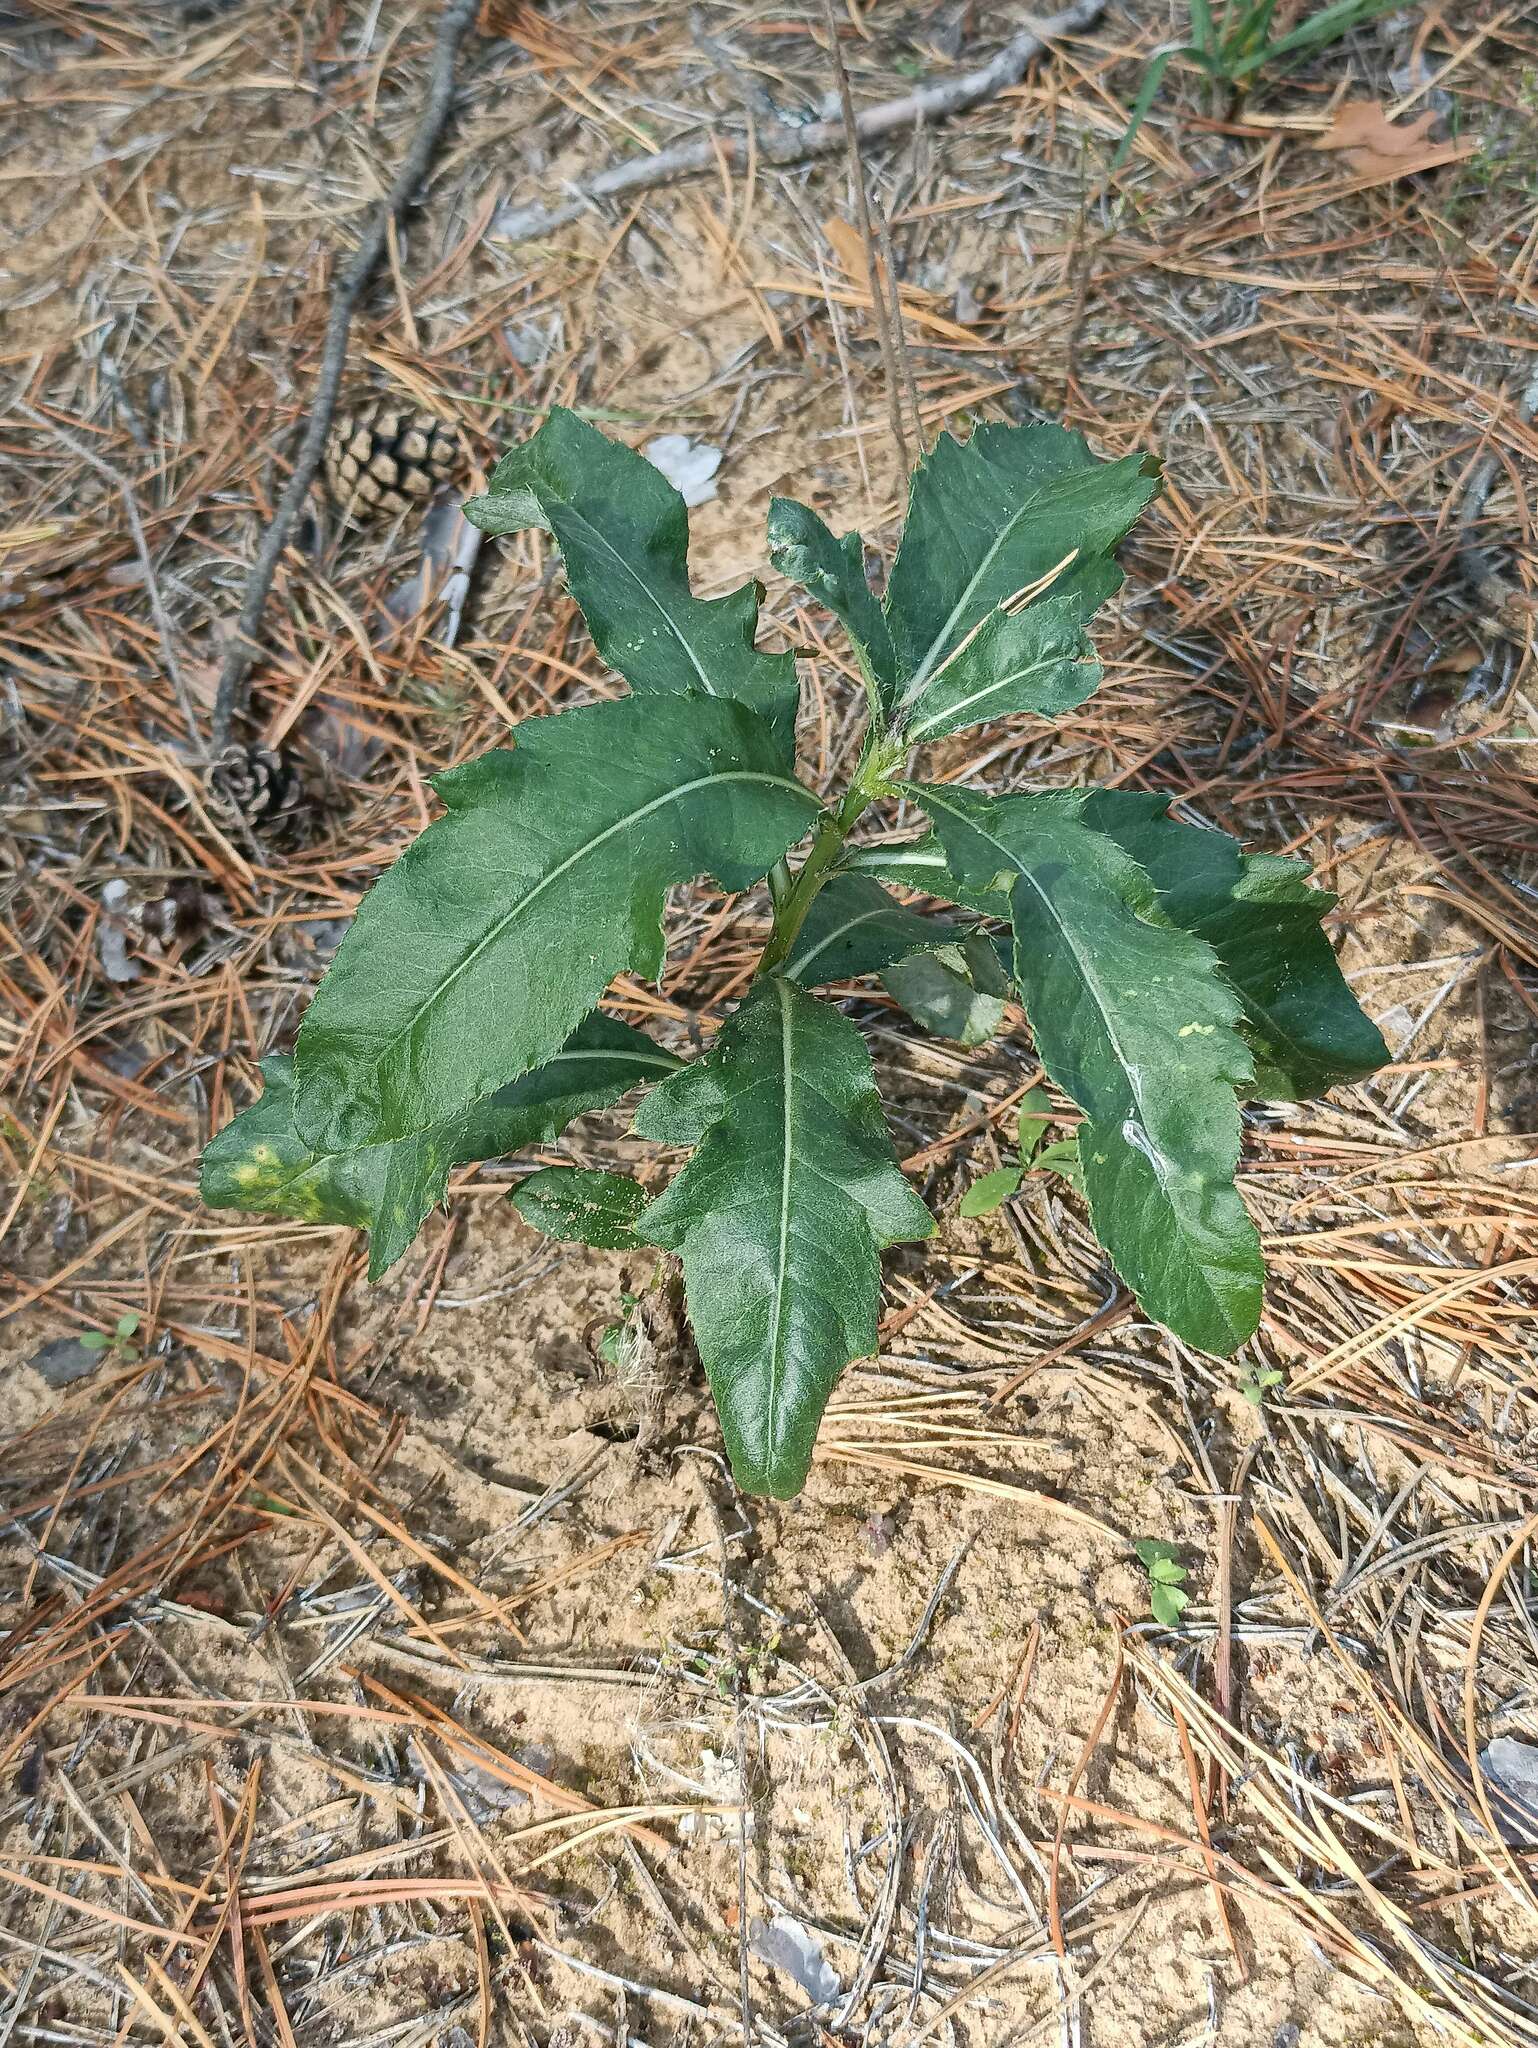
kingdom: Plantae
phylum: Tracheophyta
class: Magnoliopsida
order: Asterales
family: Asteraceae
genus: Cirsium
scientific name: Cirsium arvense
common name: Creeping thistle
